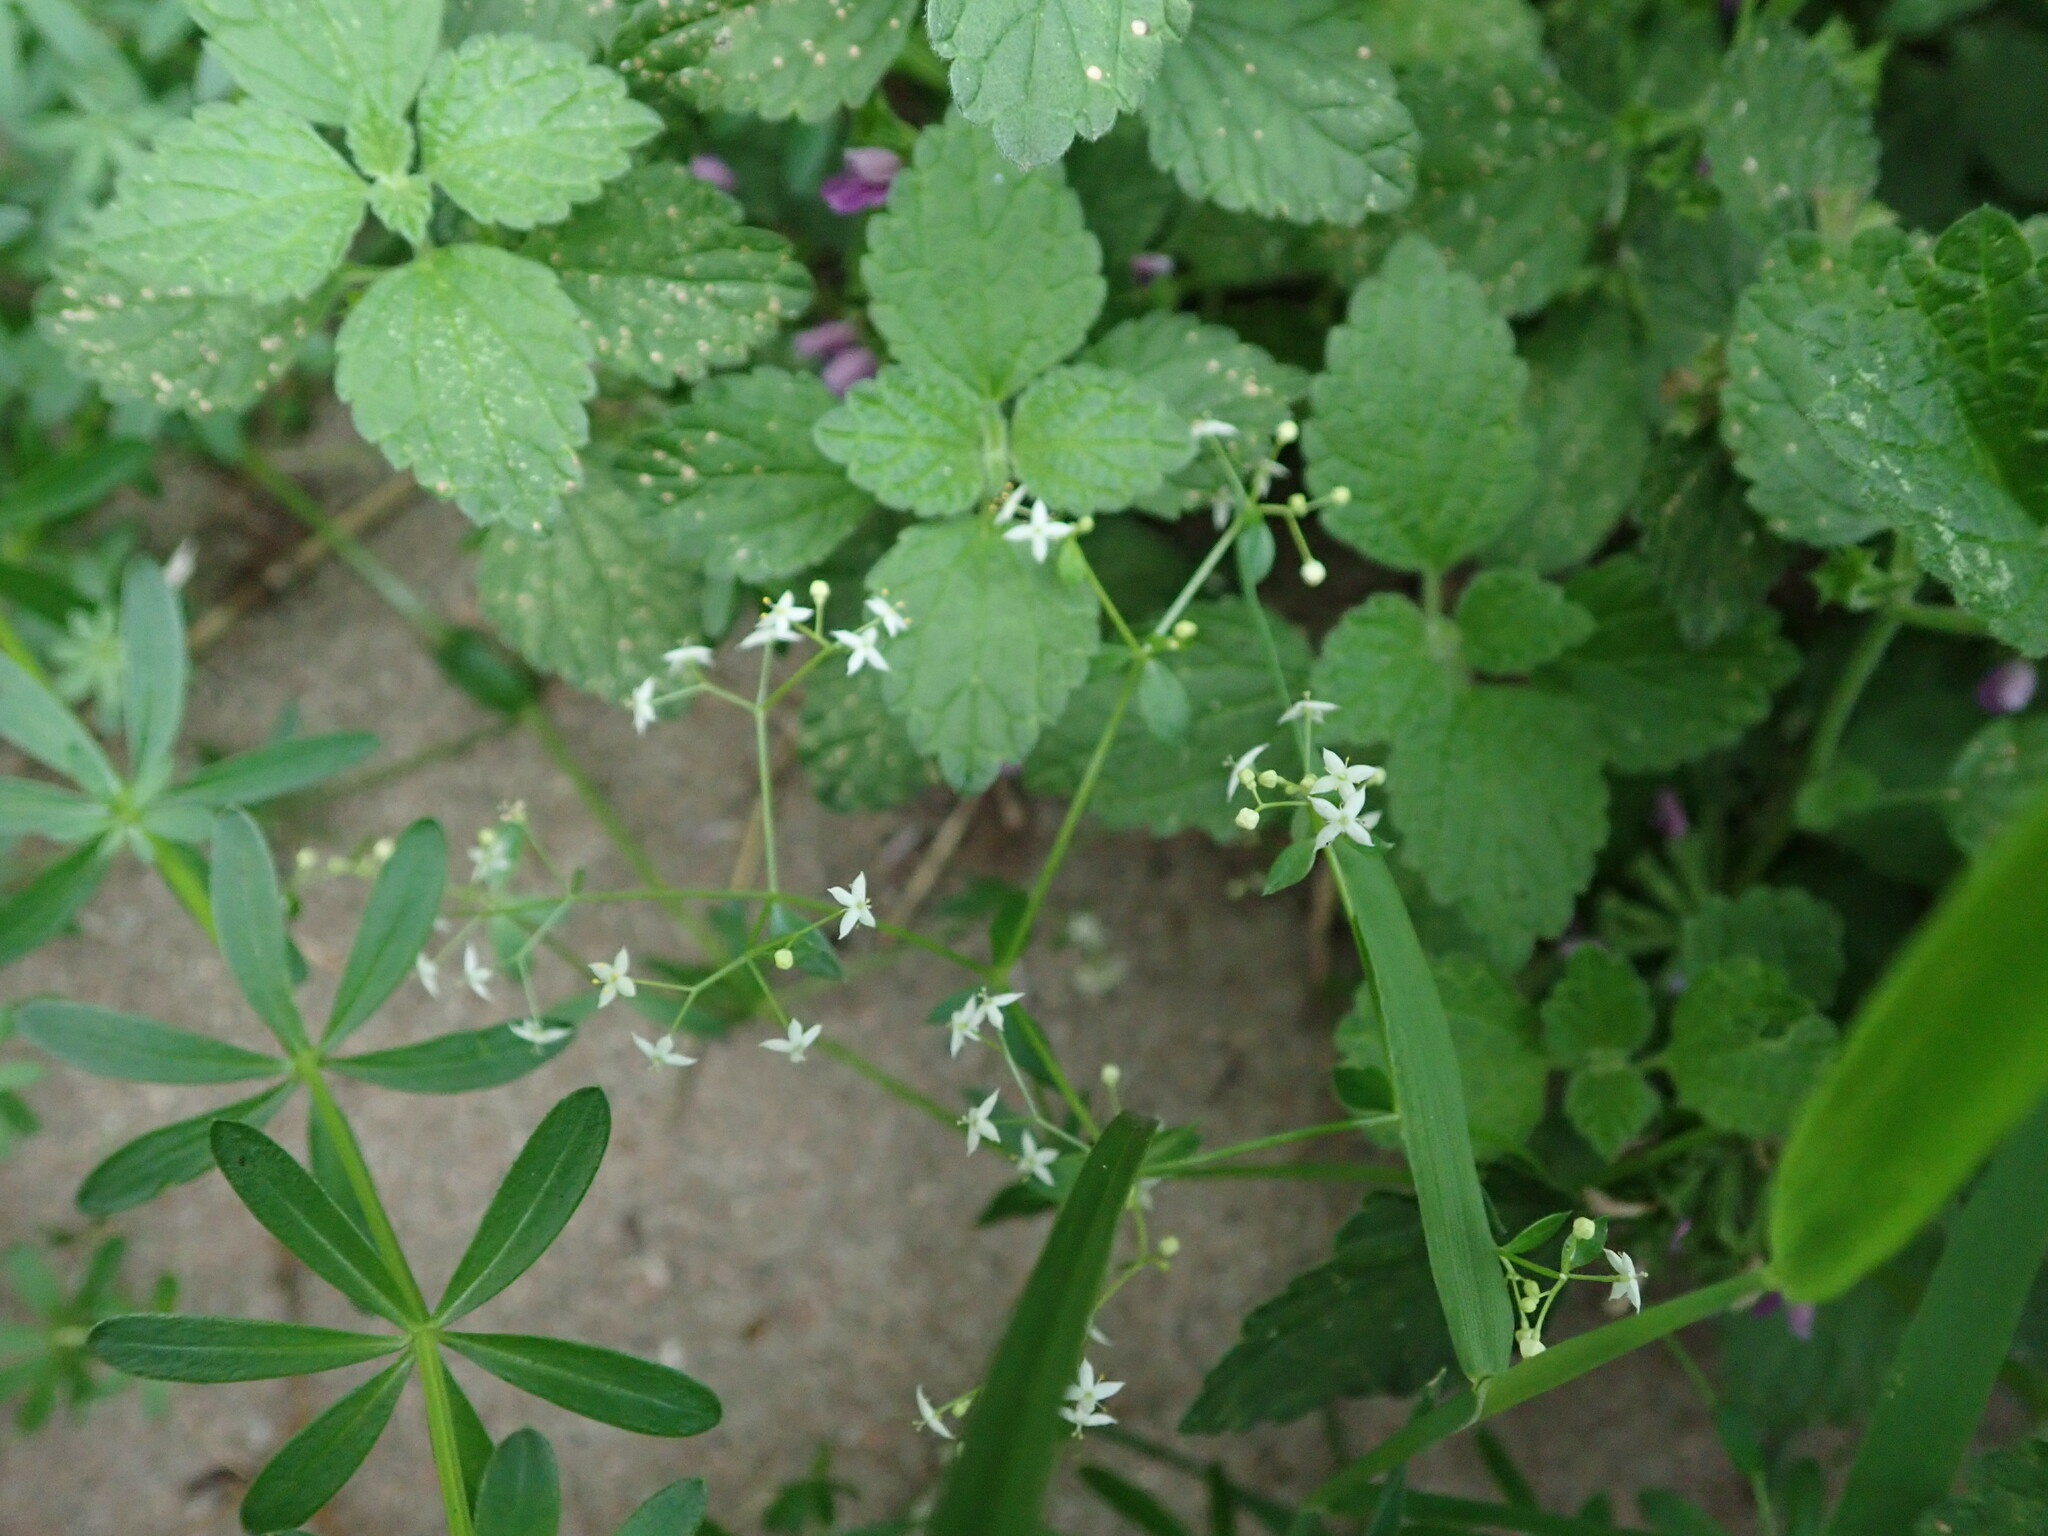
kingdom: Plantae
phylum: Tracheophyta
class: Magnoliopsida
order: Gentianales
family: Rubiaceae
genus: Galium
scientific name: Galium album
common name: White bedstraw
